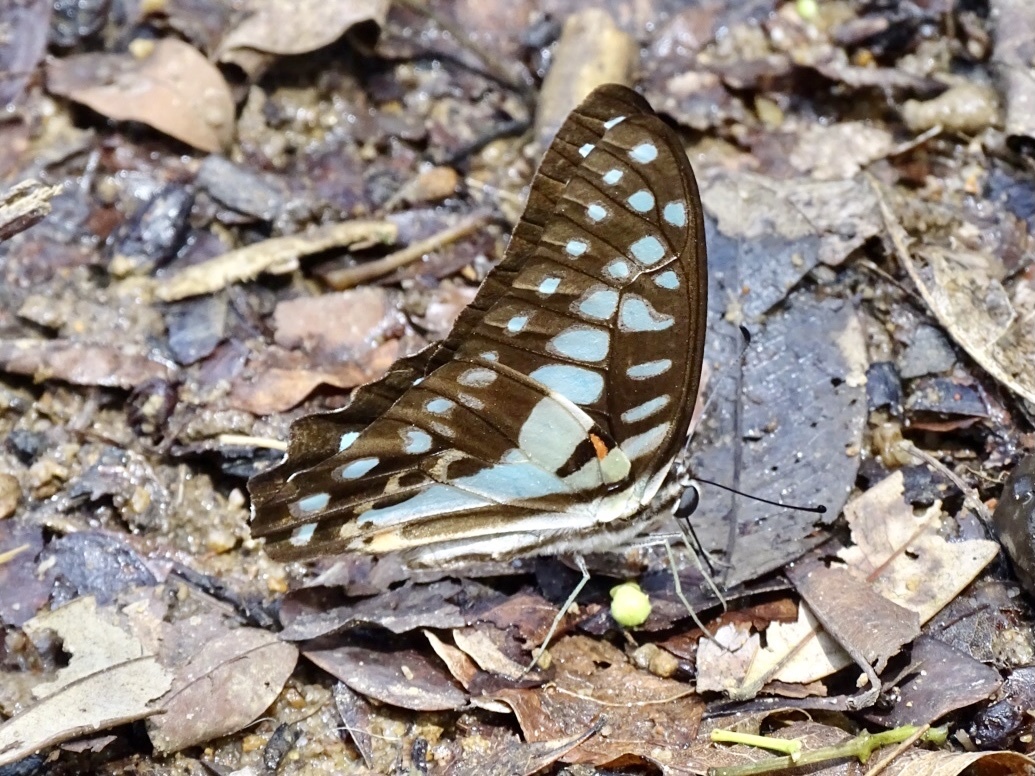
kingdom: Animalia
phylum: Arthropoda
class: Insecta
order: Lepidoptera
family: Papilionidae
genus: Graphium
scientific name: Graphium doson
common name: Common jay
